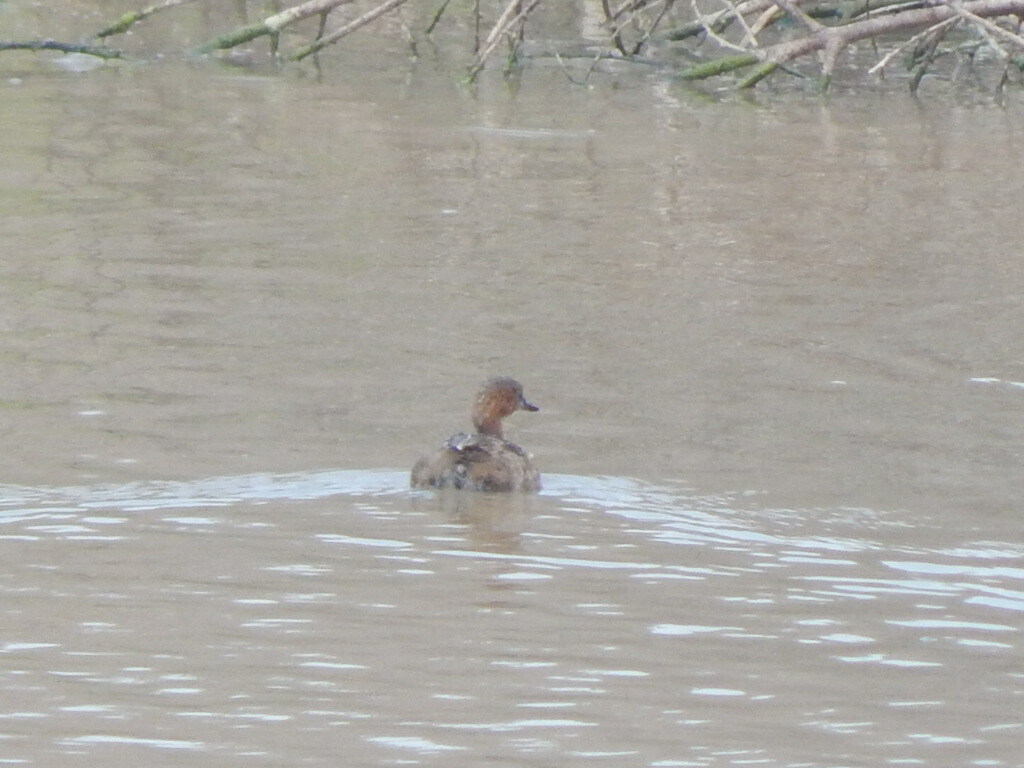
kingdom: Animalia
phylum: Chordata
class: Aves
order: Podicipediformes
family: Podicipedidae
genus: Tachybaptus
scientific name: Tachybaptus ruficollis
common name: Little grebe
